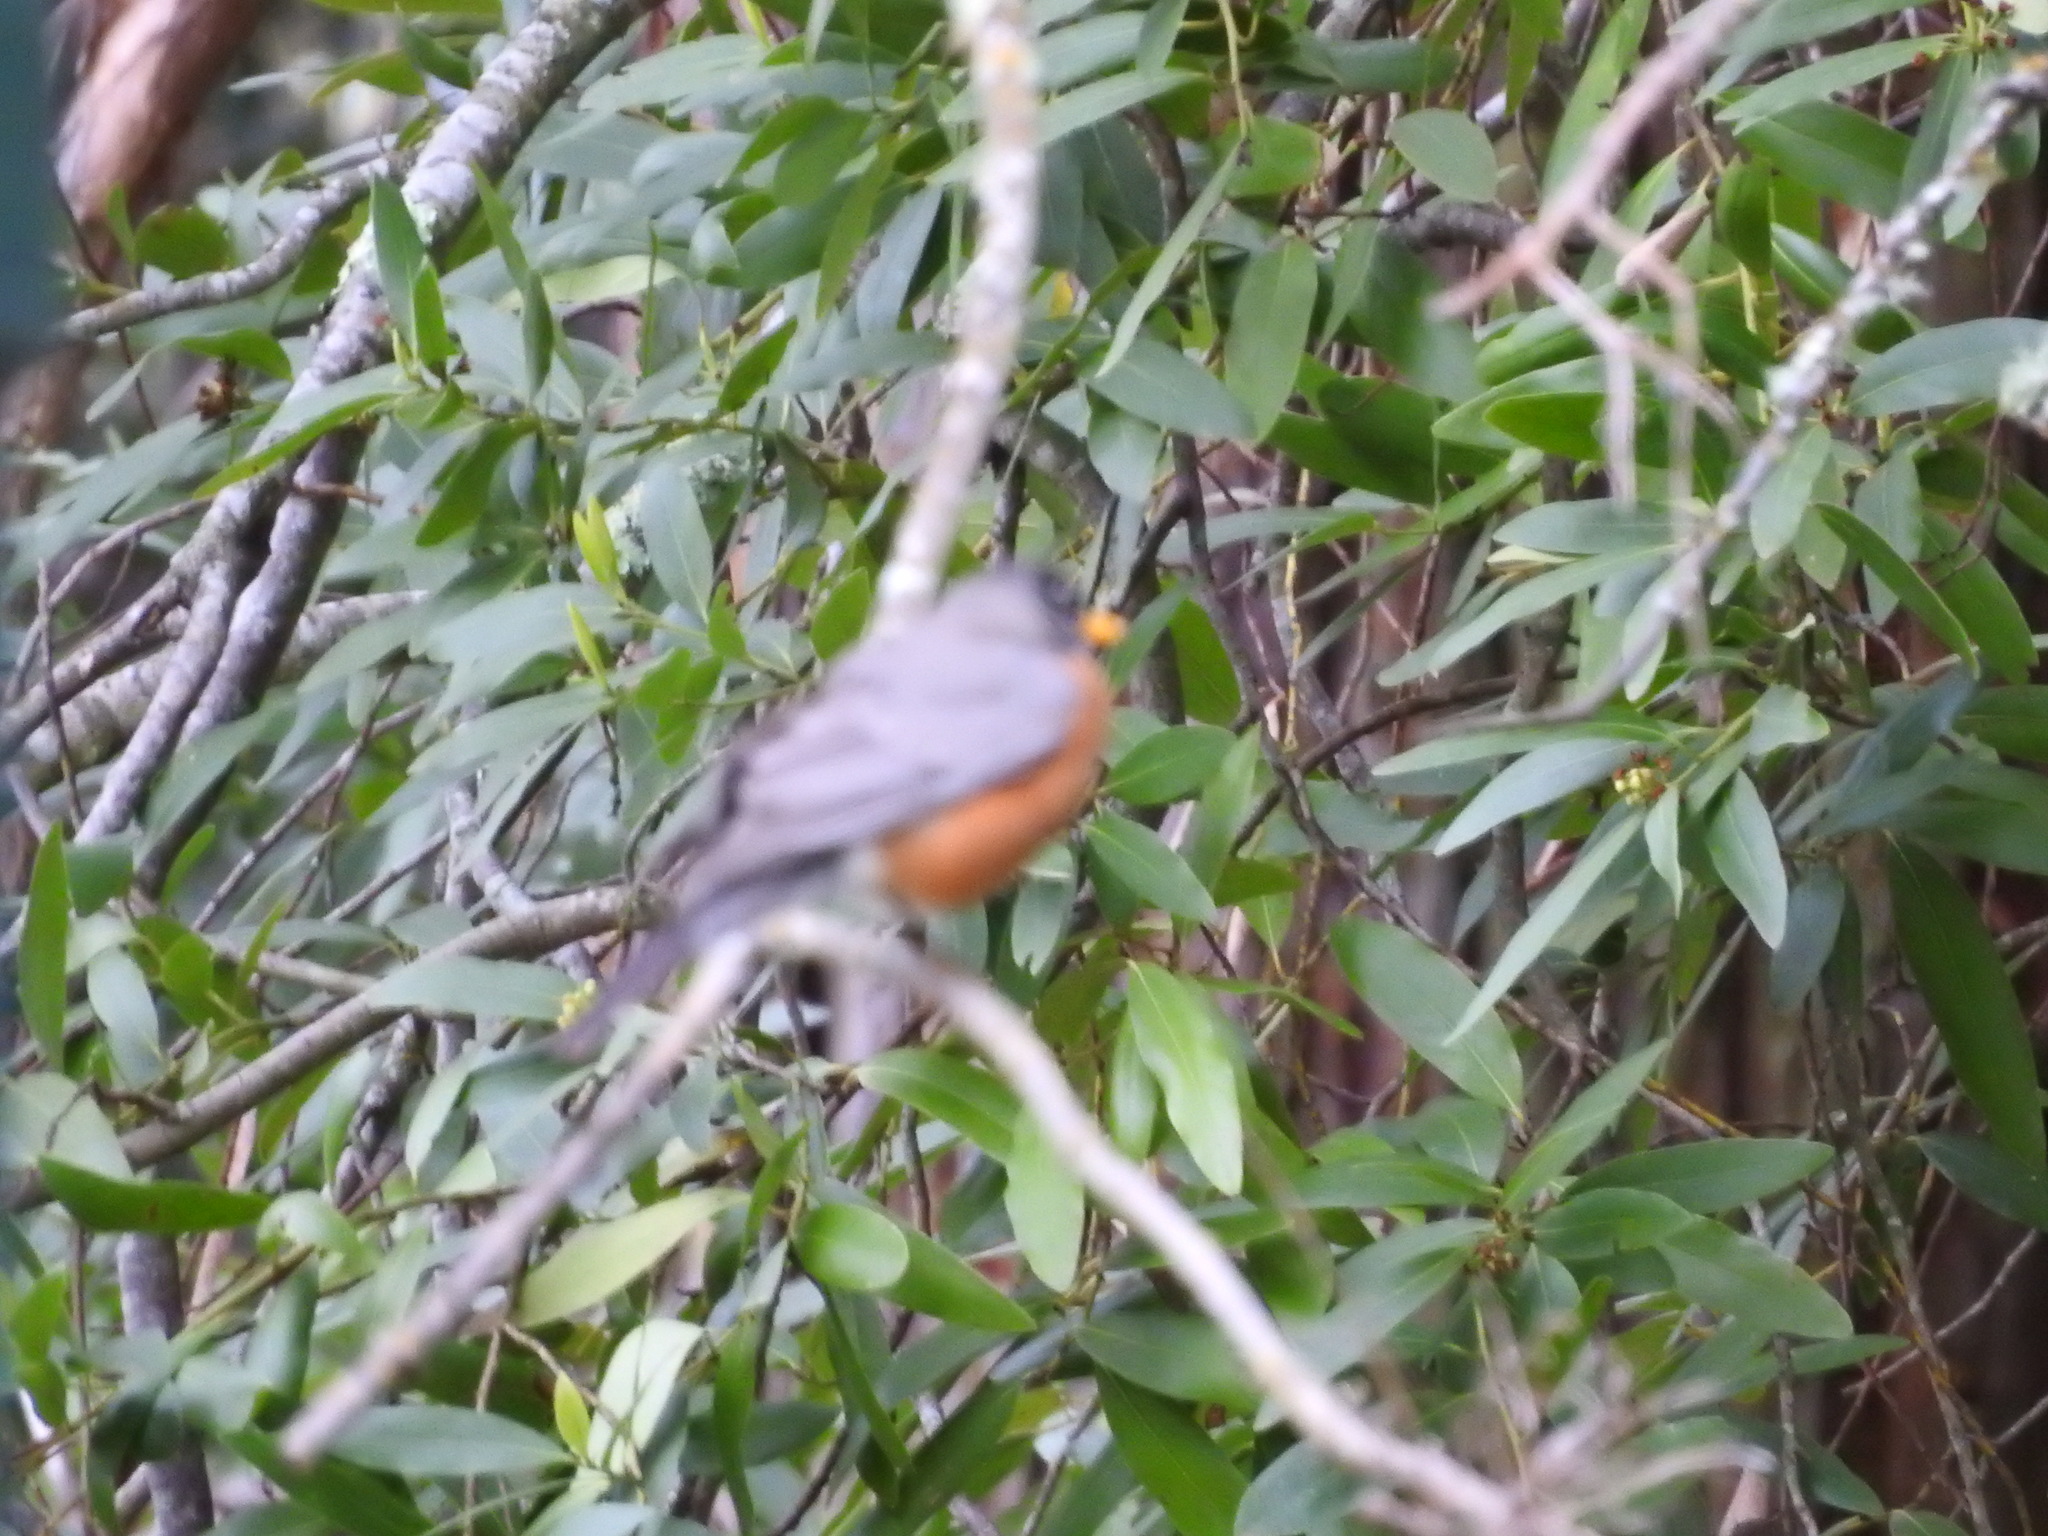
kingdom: Animalia
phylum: Chordata
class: Aves
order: Passeriformes
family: Turdidae
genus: Turdus
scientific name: Turdus migratorius
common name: American robin
